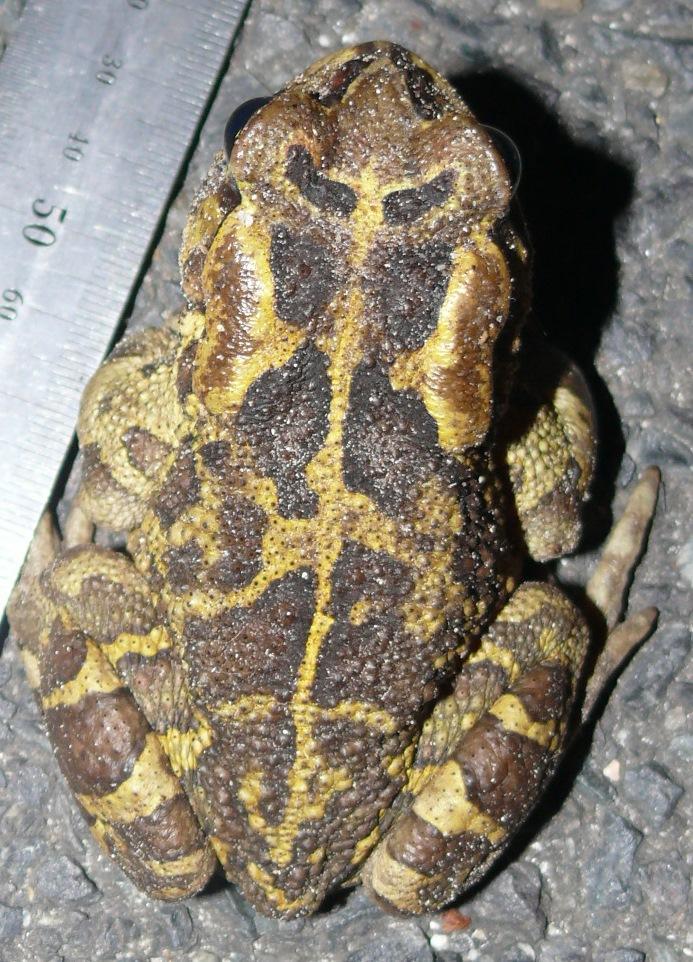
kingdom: Animalia
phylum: Chordata
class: Amphibia
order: Anura
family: Bufonidae
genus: Sclerophrys
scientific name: Sclerophrys pantherina
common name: Panther toad
